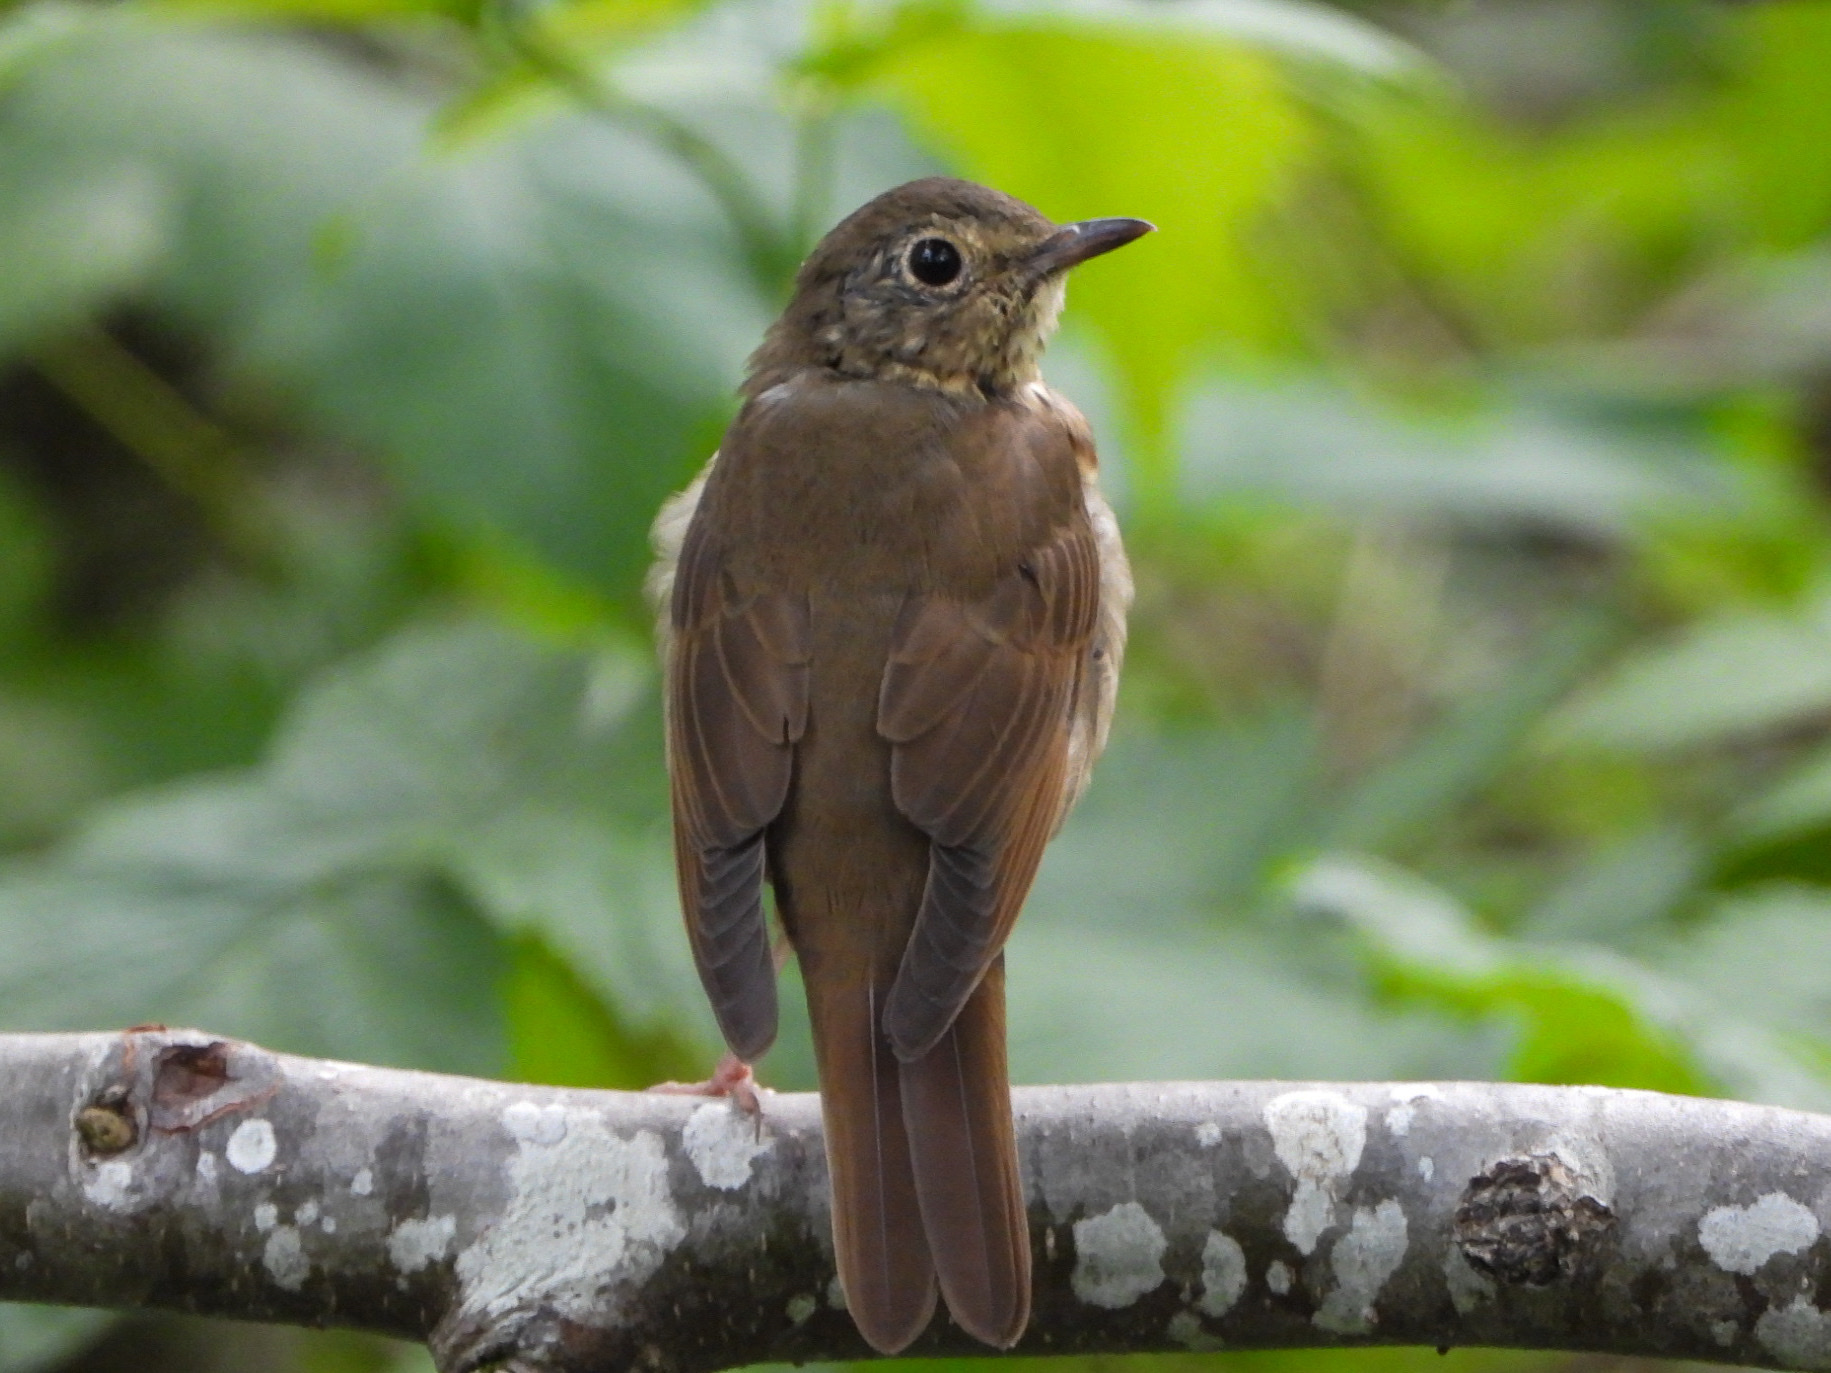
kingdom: Animalia
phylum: Chordata
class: Aves
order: Passeriformes
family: Turdidae
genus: Catharus
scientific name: Catharus ustulatus
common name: Swainson's thrush
